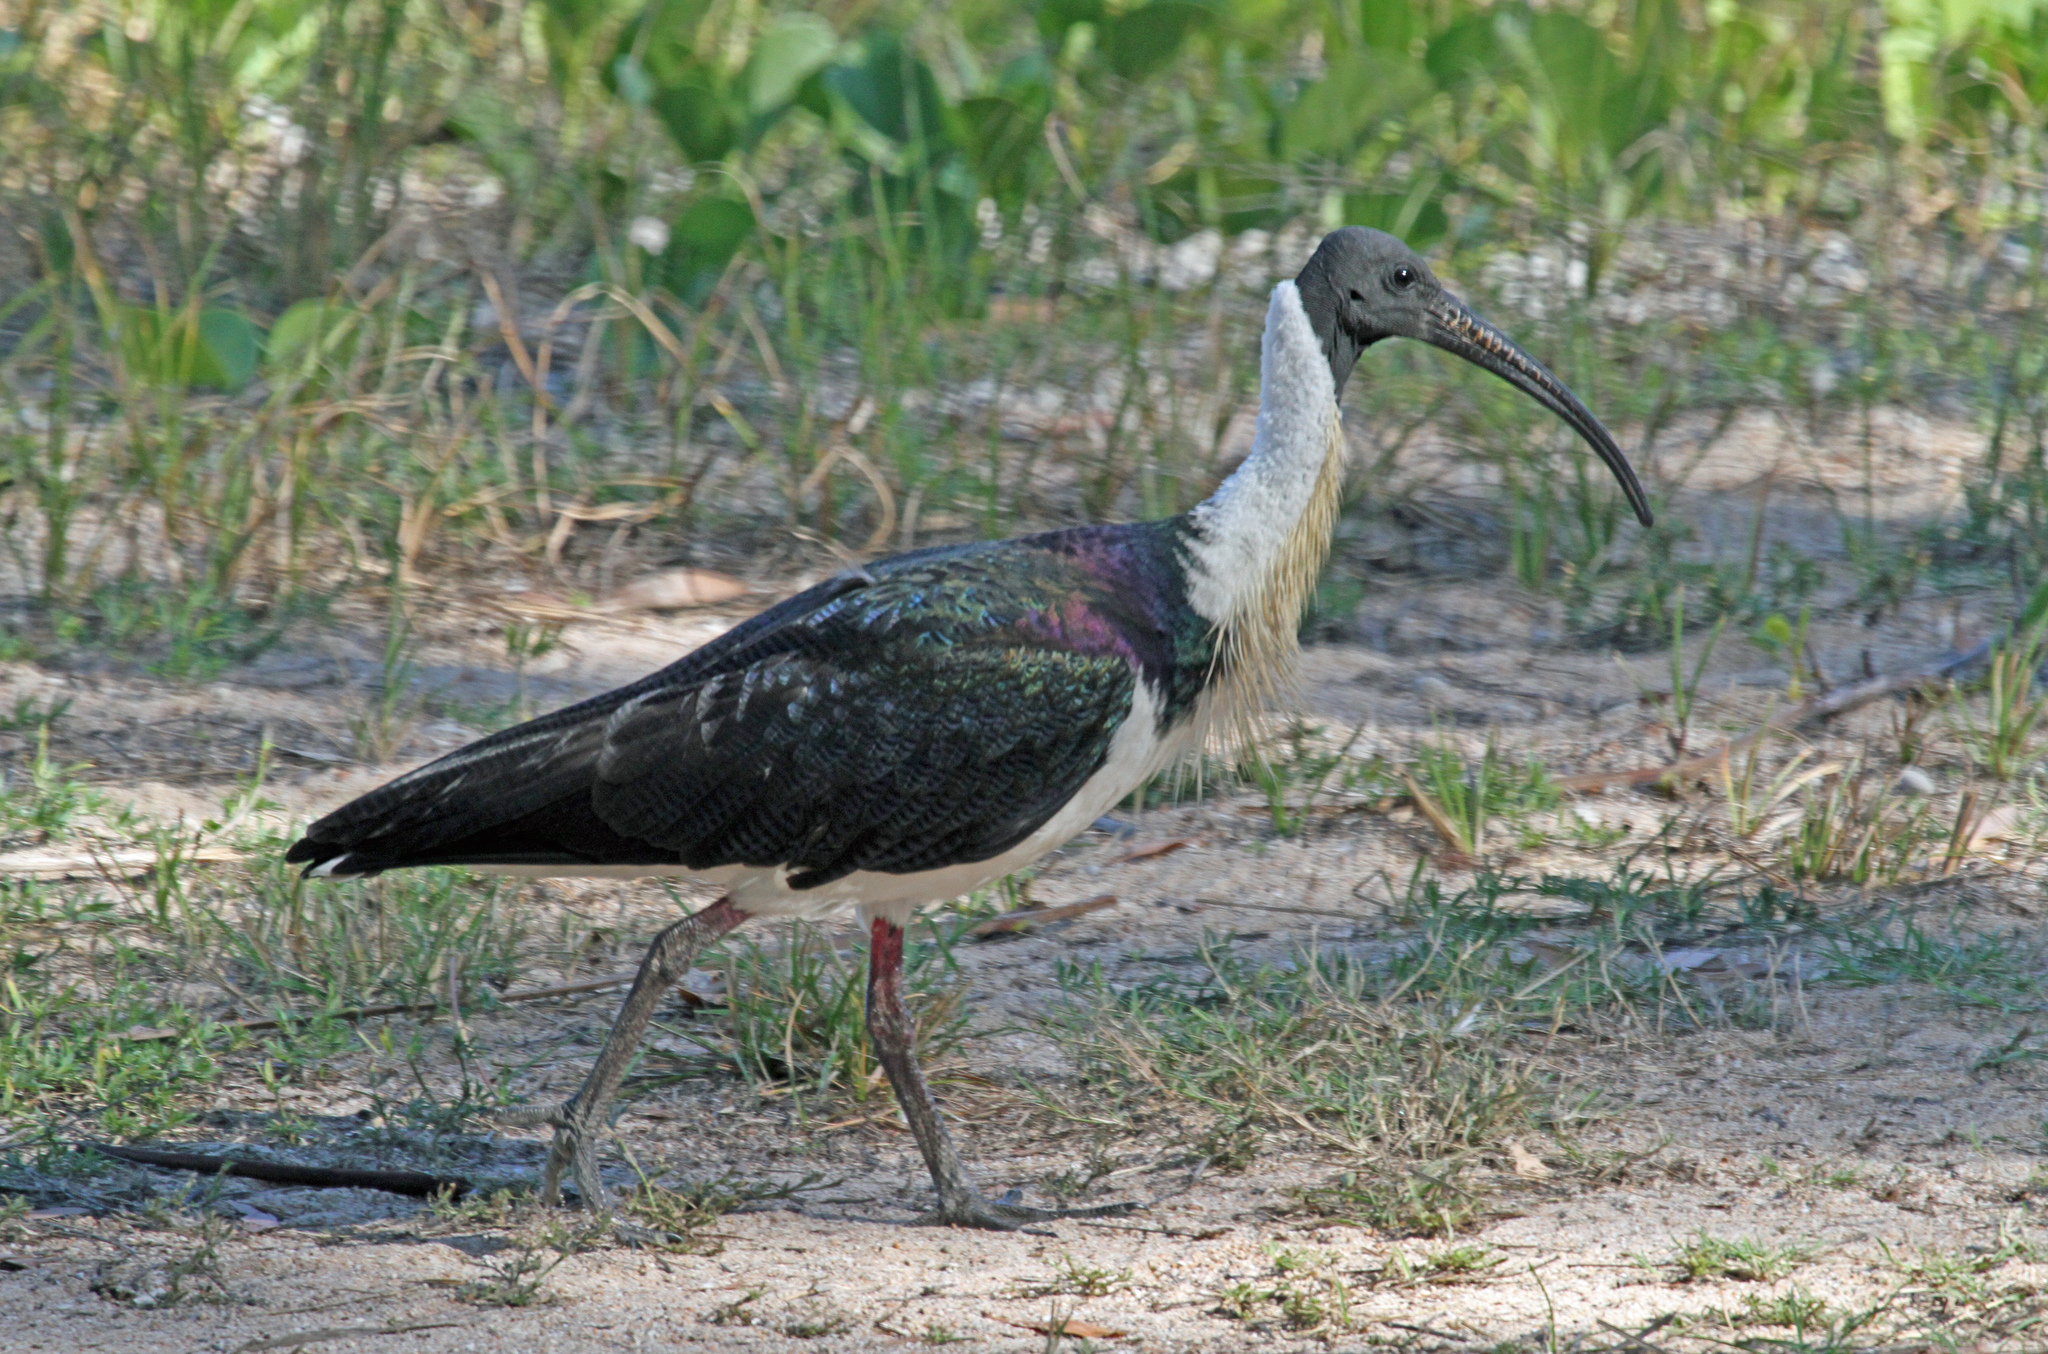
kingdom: Animalia
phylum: Chordata
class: Aves
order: Pelecaniformes
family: Threskiornithidae
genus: Threskiornis
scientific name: Threskiornis spinicollis
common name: Straw-necked ibis
